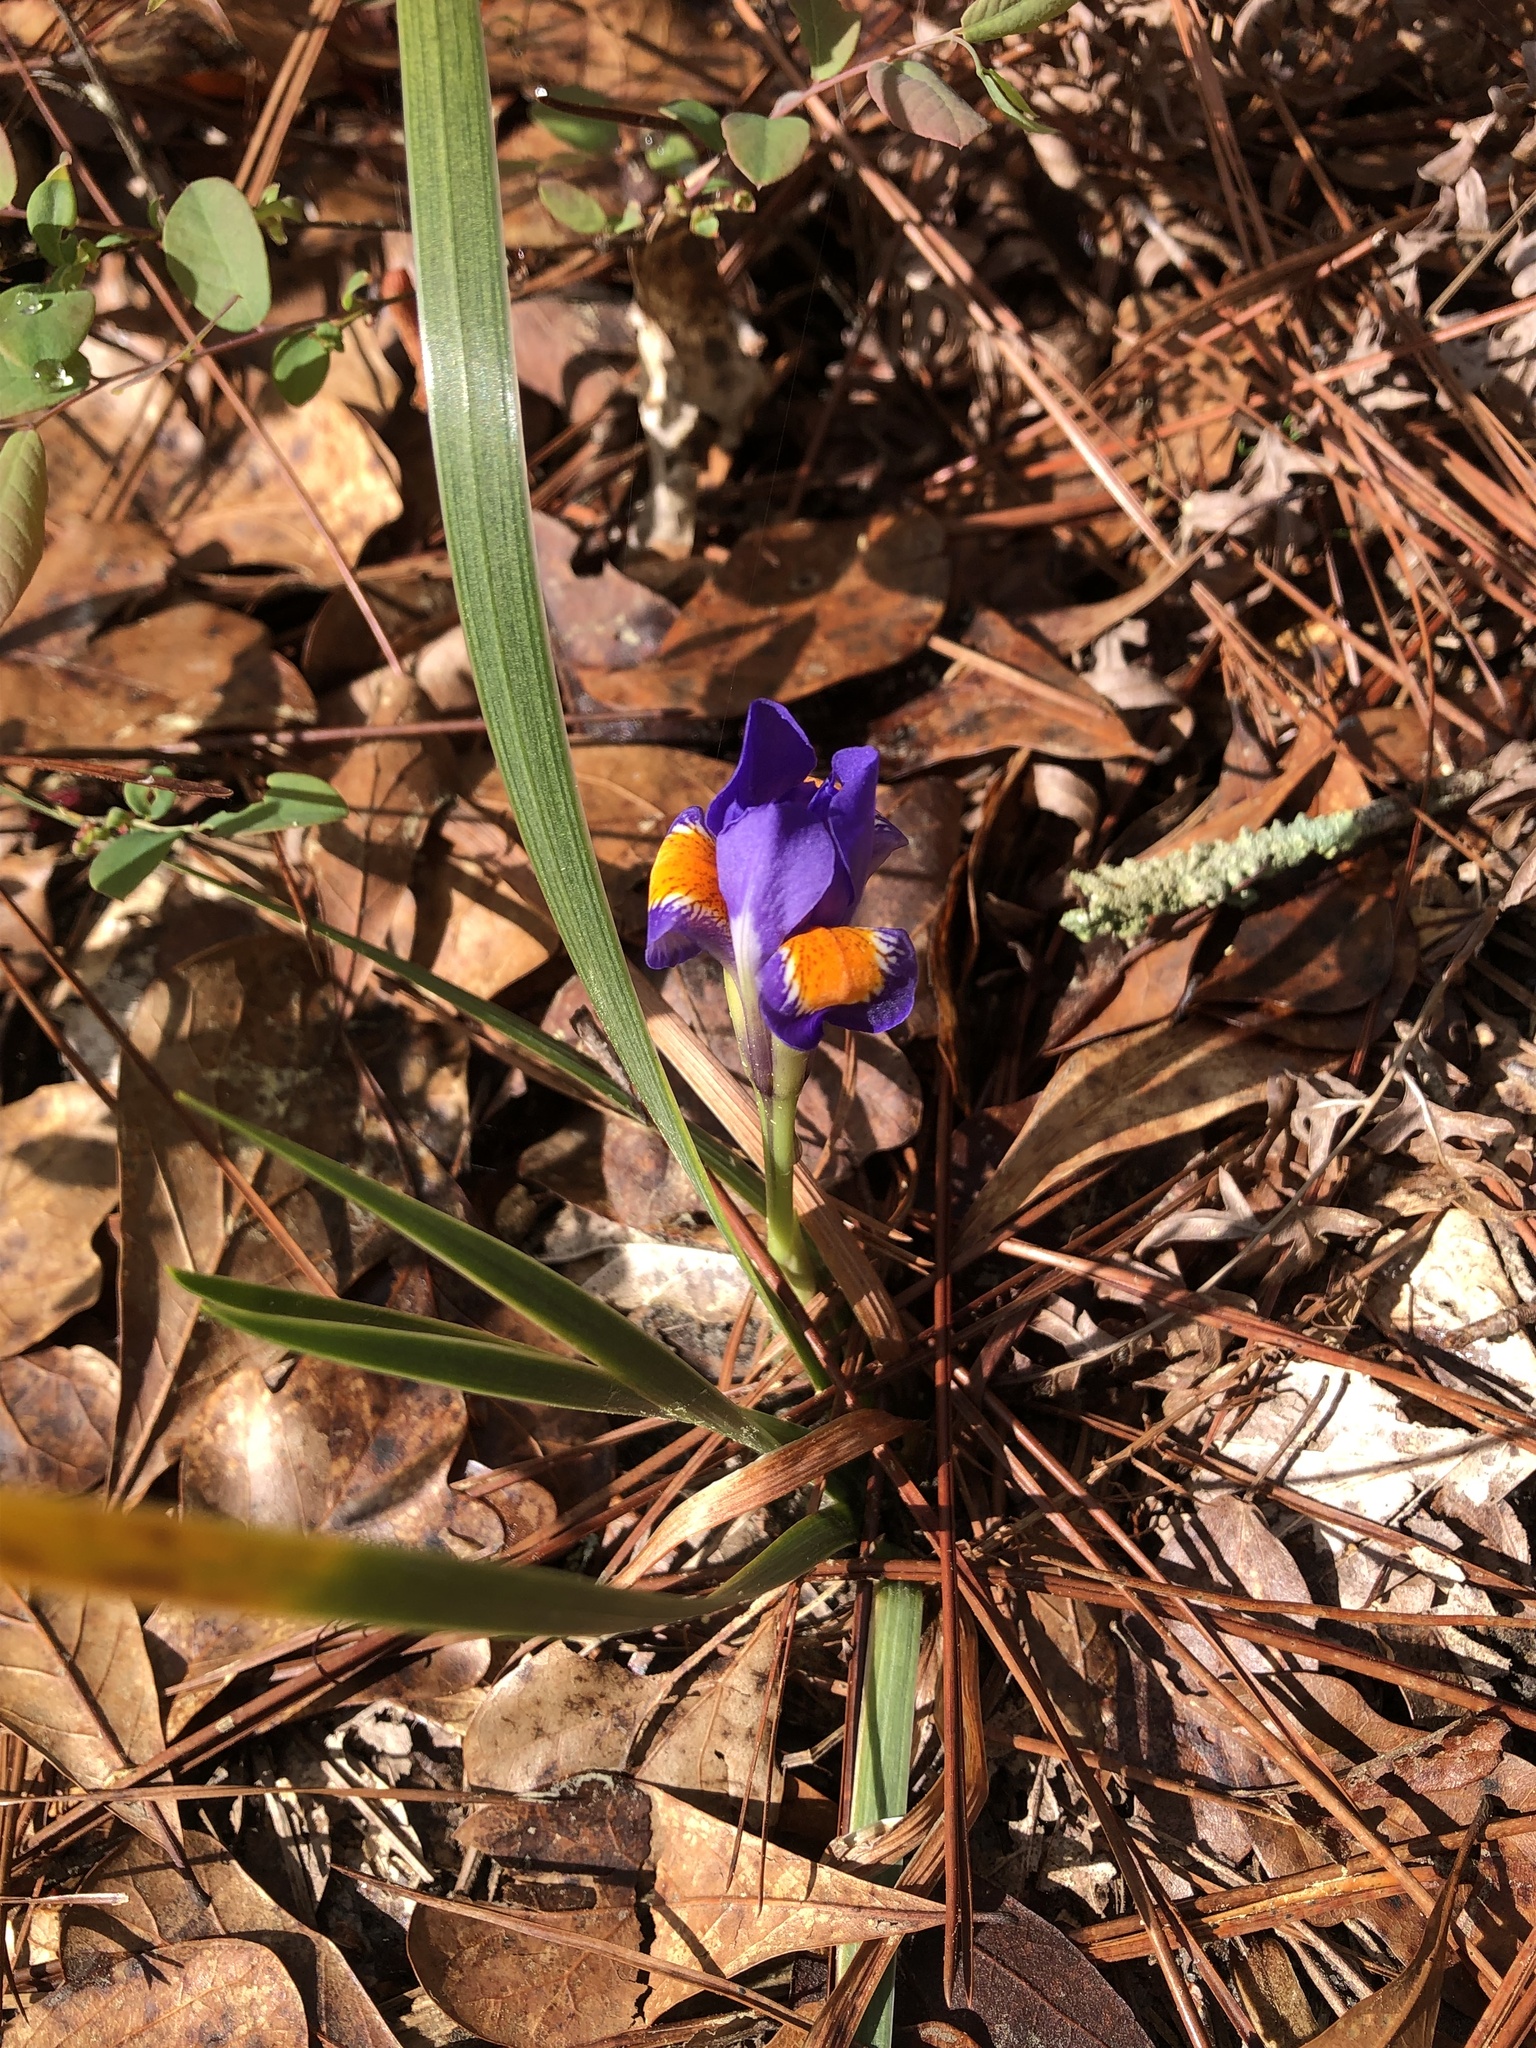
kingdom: Plantae
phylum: Tracheophyta
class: Liliopsida
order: Asparagales
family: Iridaceae
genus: Iris
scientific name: Iris verna
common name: Dwarf iris
